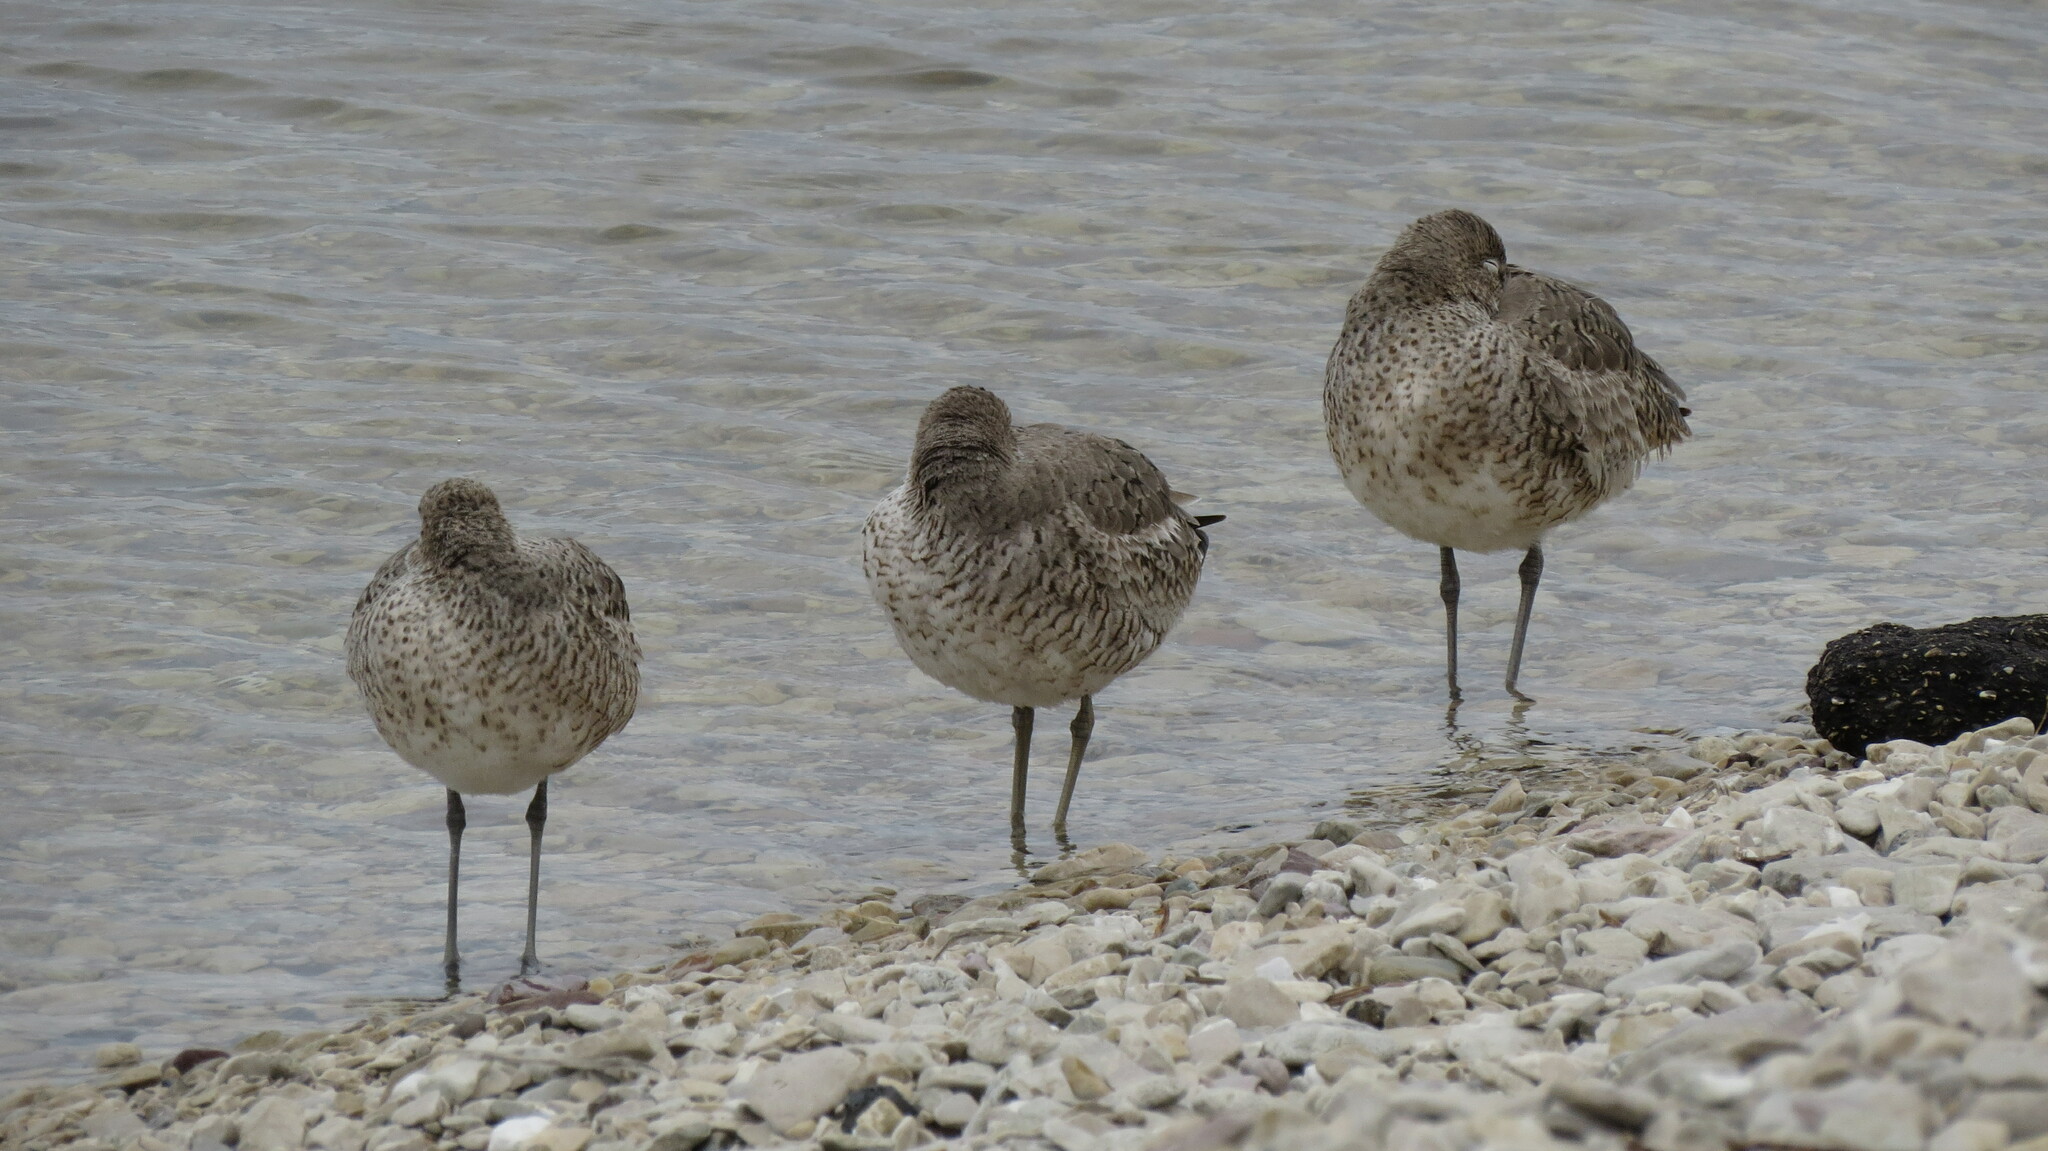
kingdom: Animalia
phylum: Chordata
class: Aves
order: Charadriiformes
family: Scolopacidae
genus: Tringa
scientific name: Tringa semipalmata
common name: Willet
